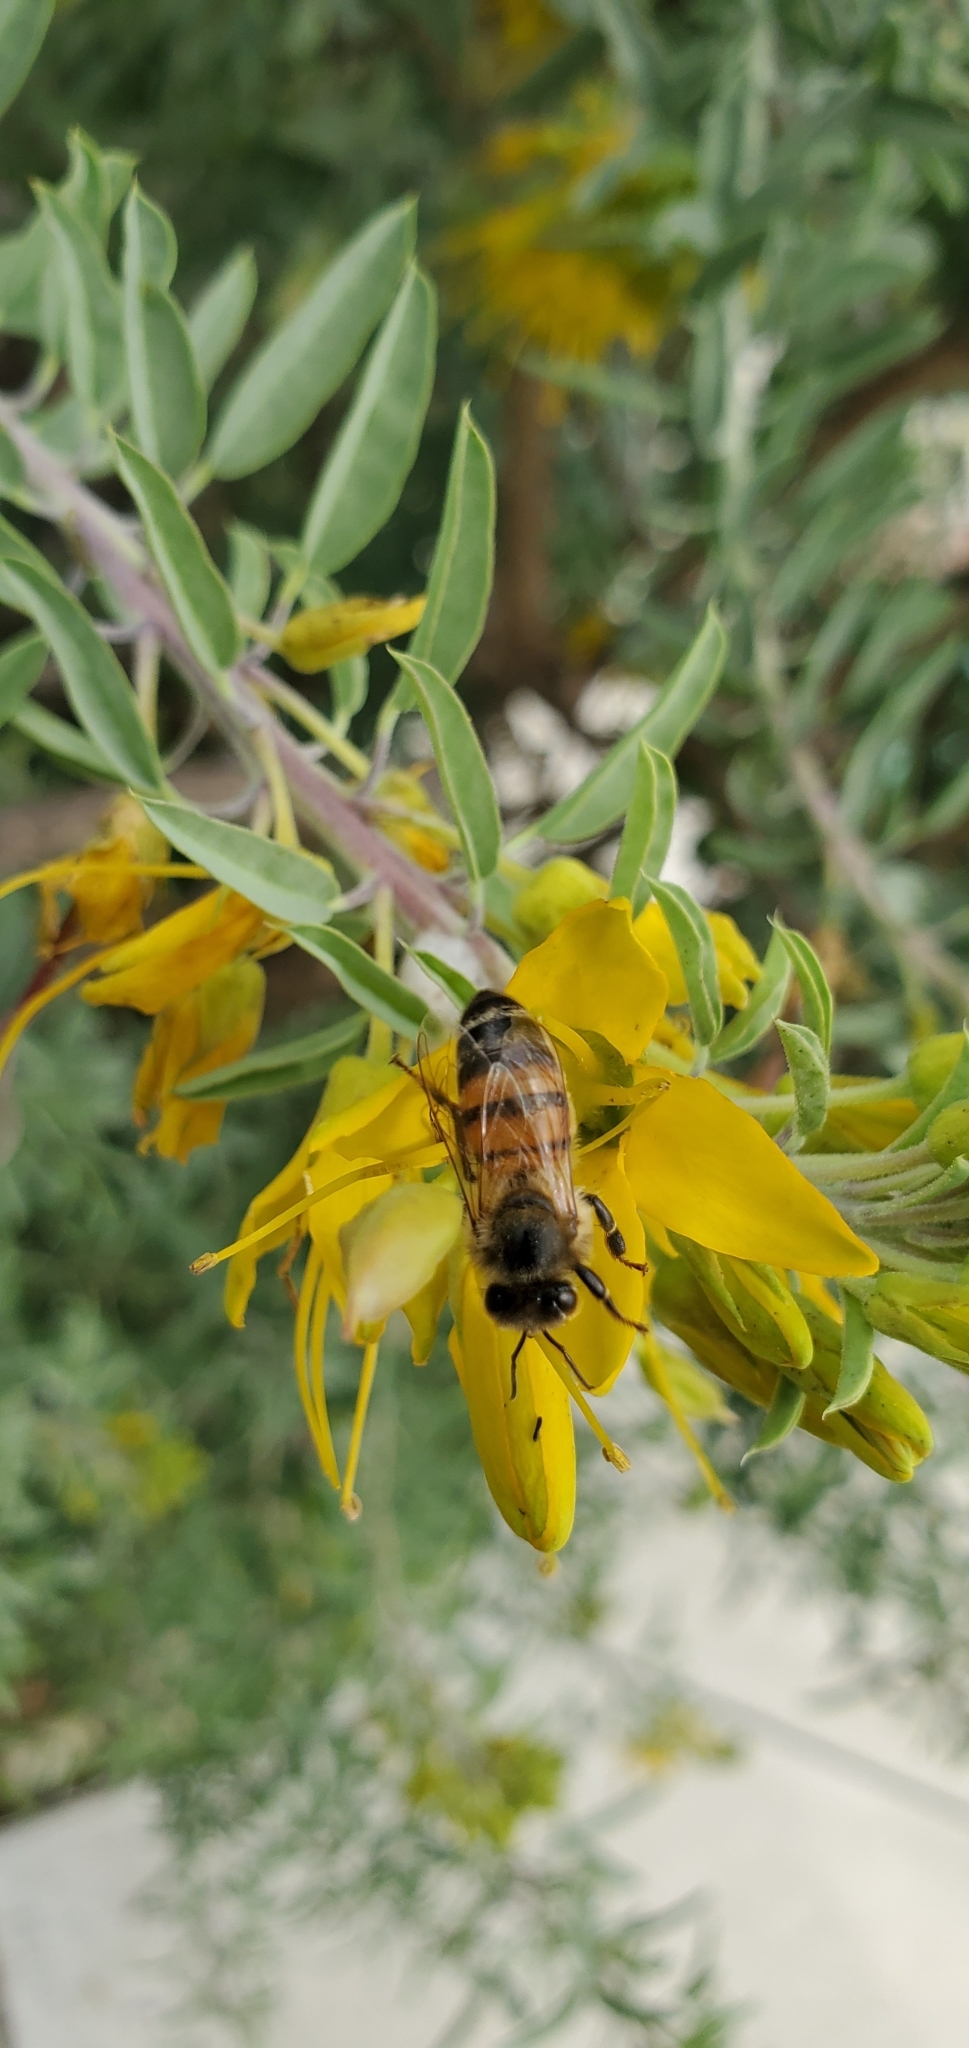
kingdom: Animalia
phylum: Arthropoda
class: Insecta
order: Hymenoptera
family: Apidae
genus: Apis
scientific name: Apis mellifera
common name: Honey bee
